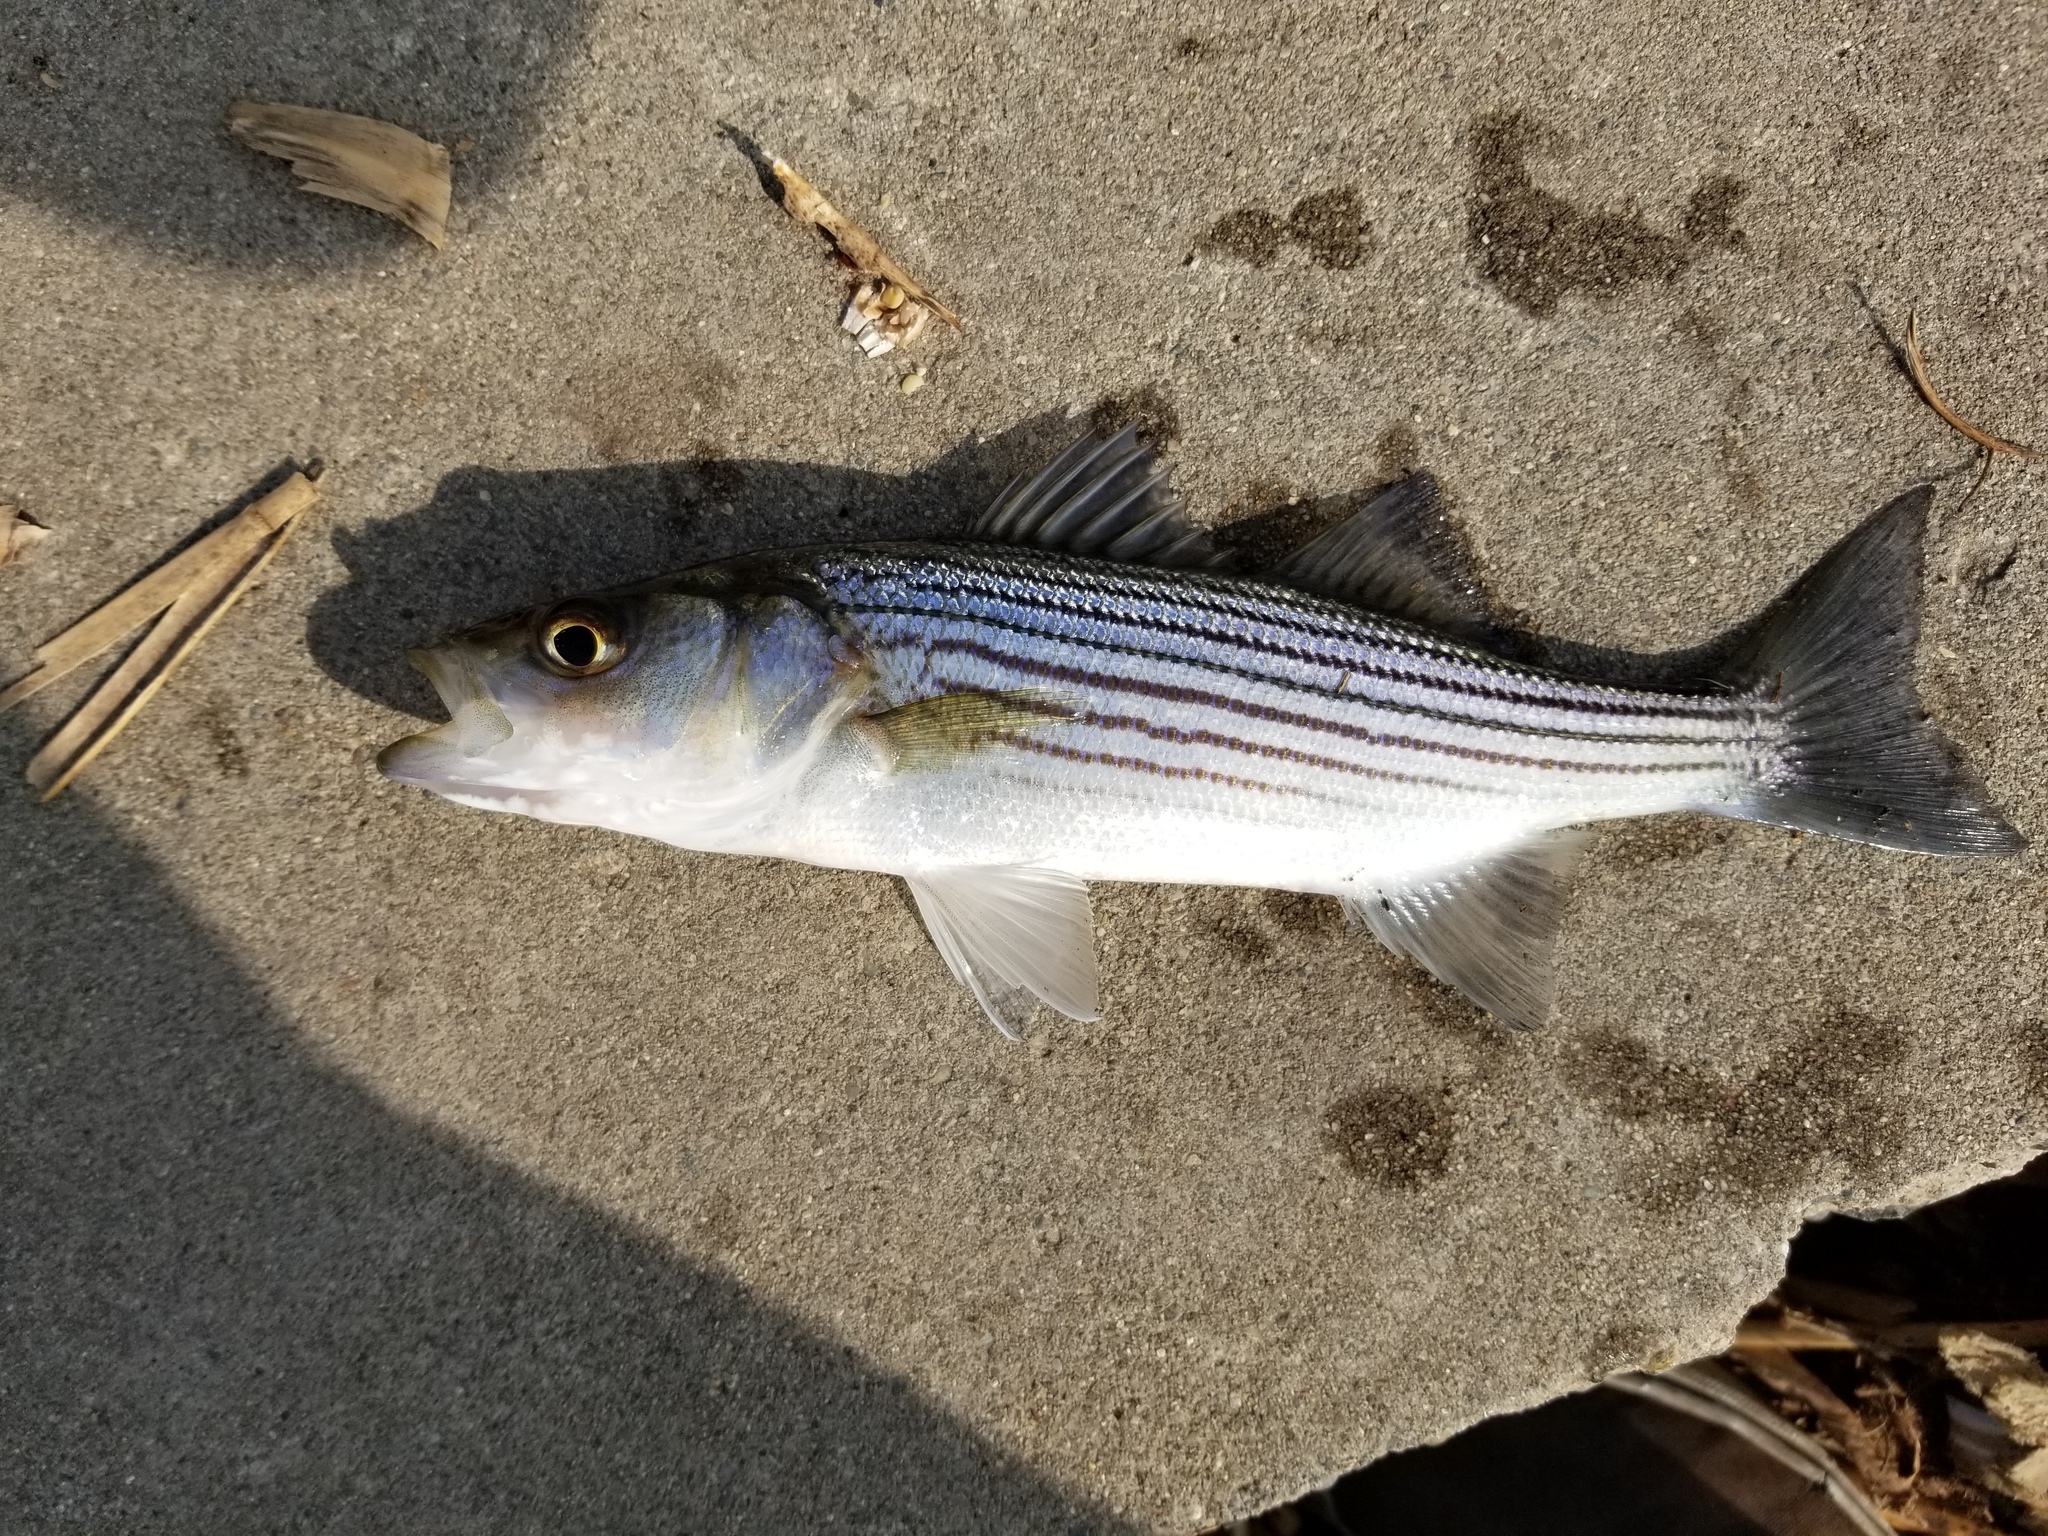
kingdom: Animalia
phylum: Chordata
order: Perciformes
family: Moronidae
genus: Morone
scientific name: Morone saxatilis
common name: Striped bass
